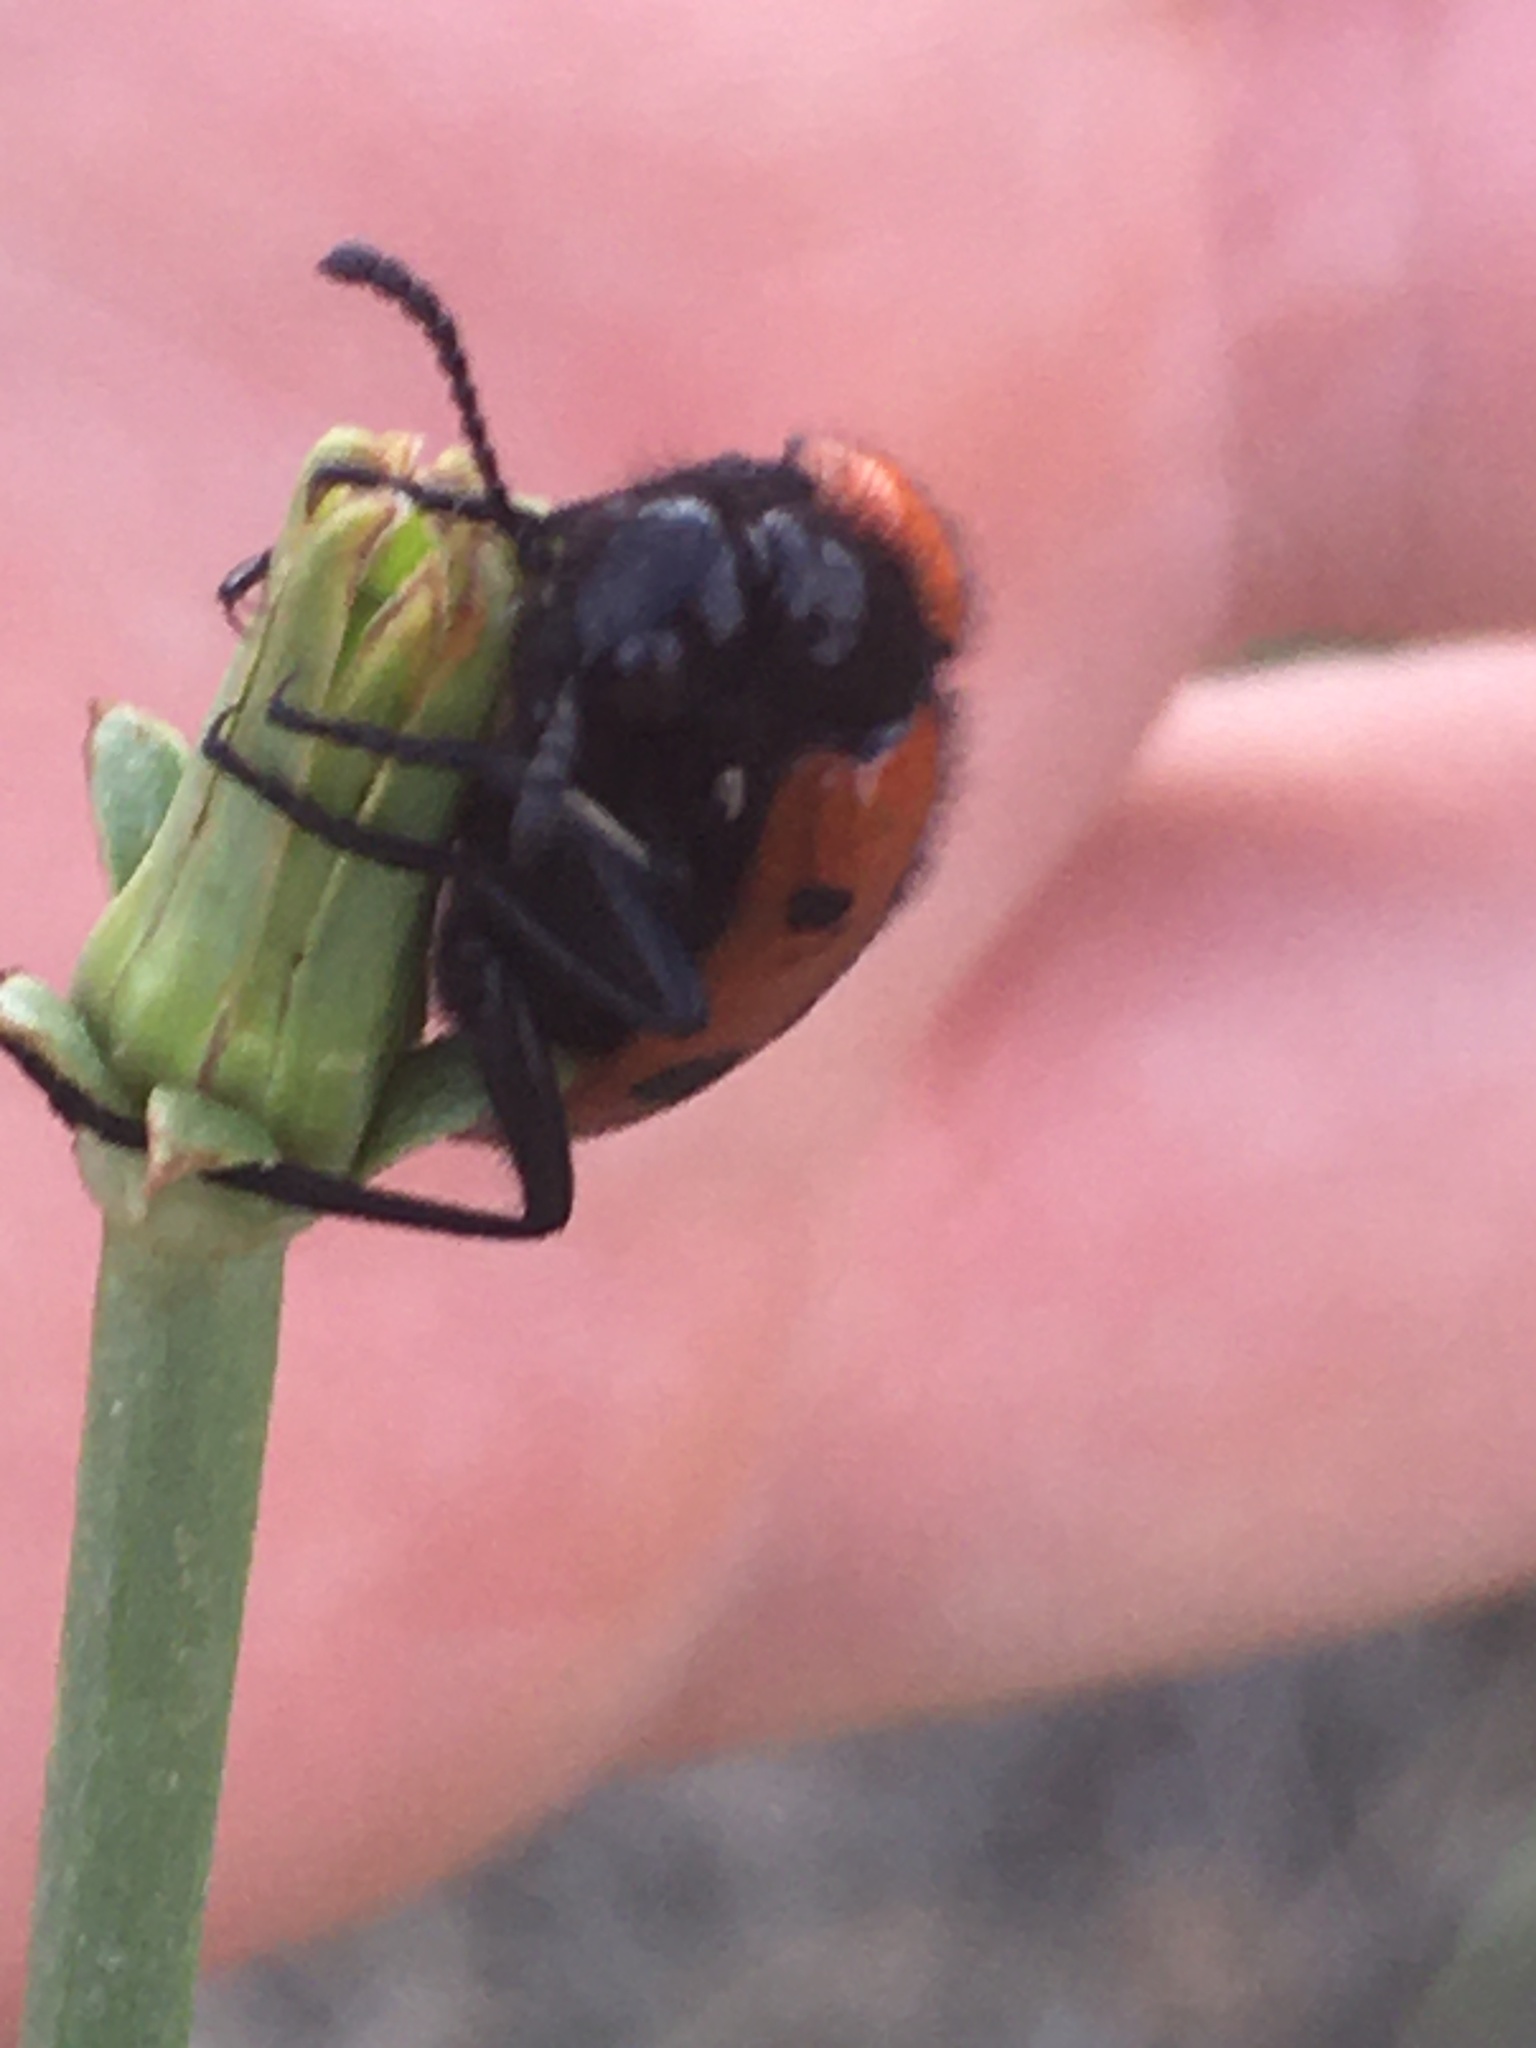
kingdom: Animalia
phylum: Arthropoda
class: Insecta
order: Coleoptera
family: Meloidae
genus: Mylabris
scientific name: Mylabris quadripunctata
